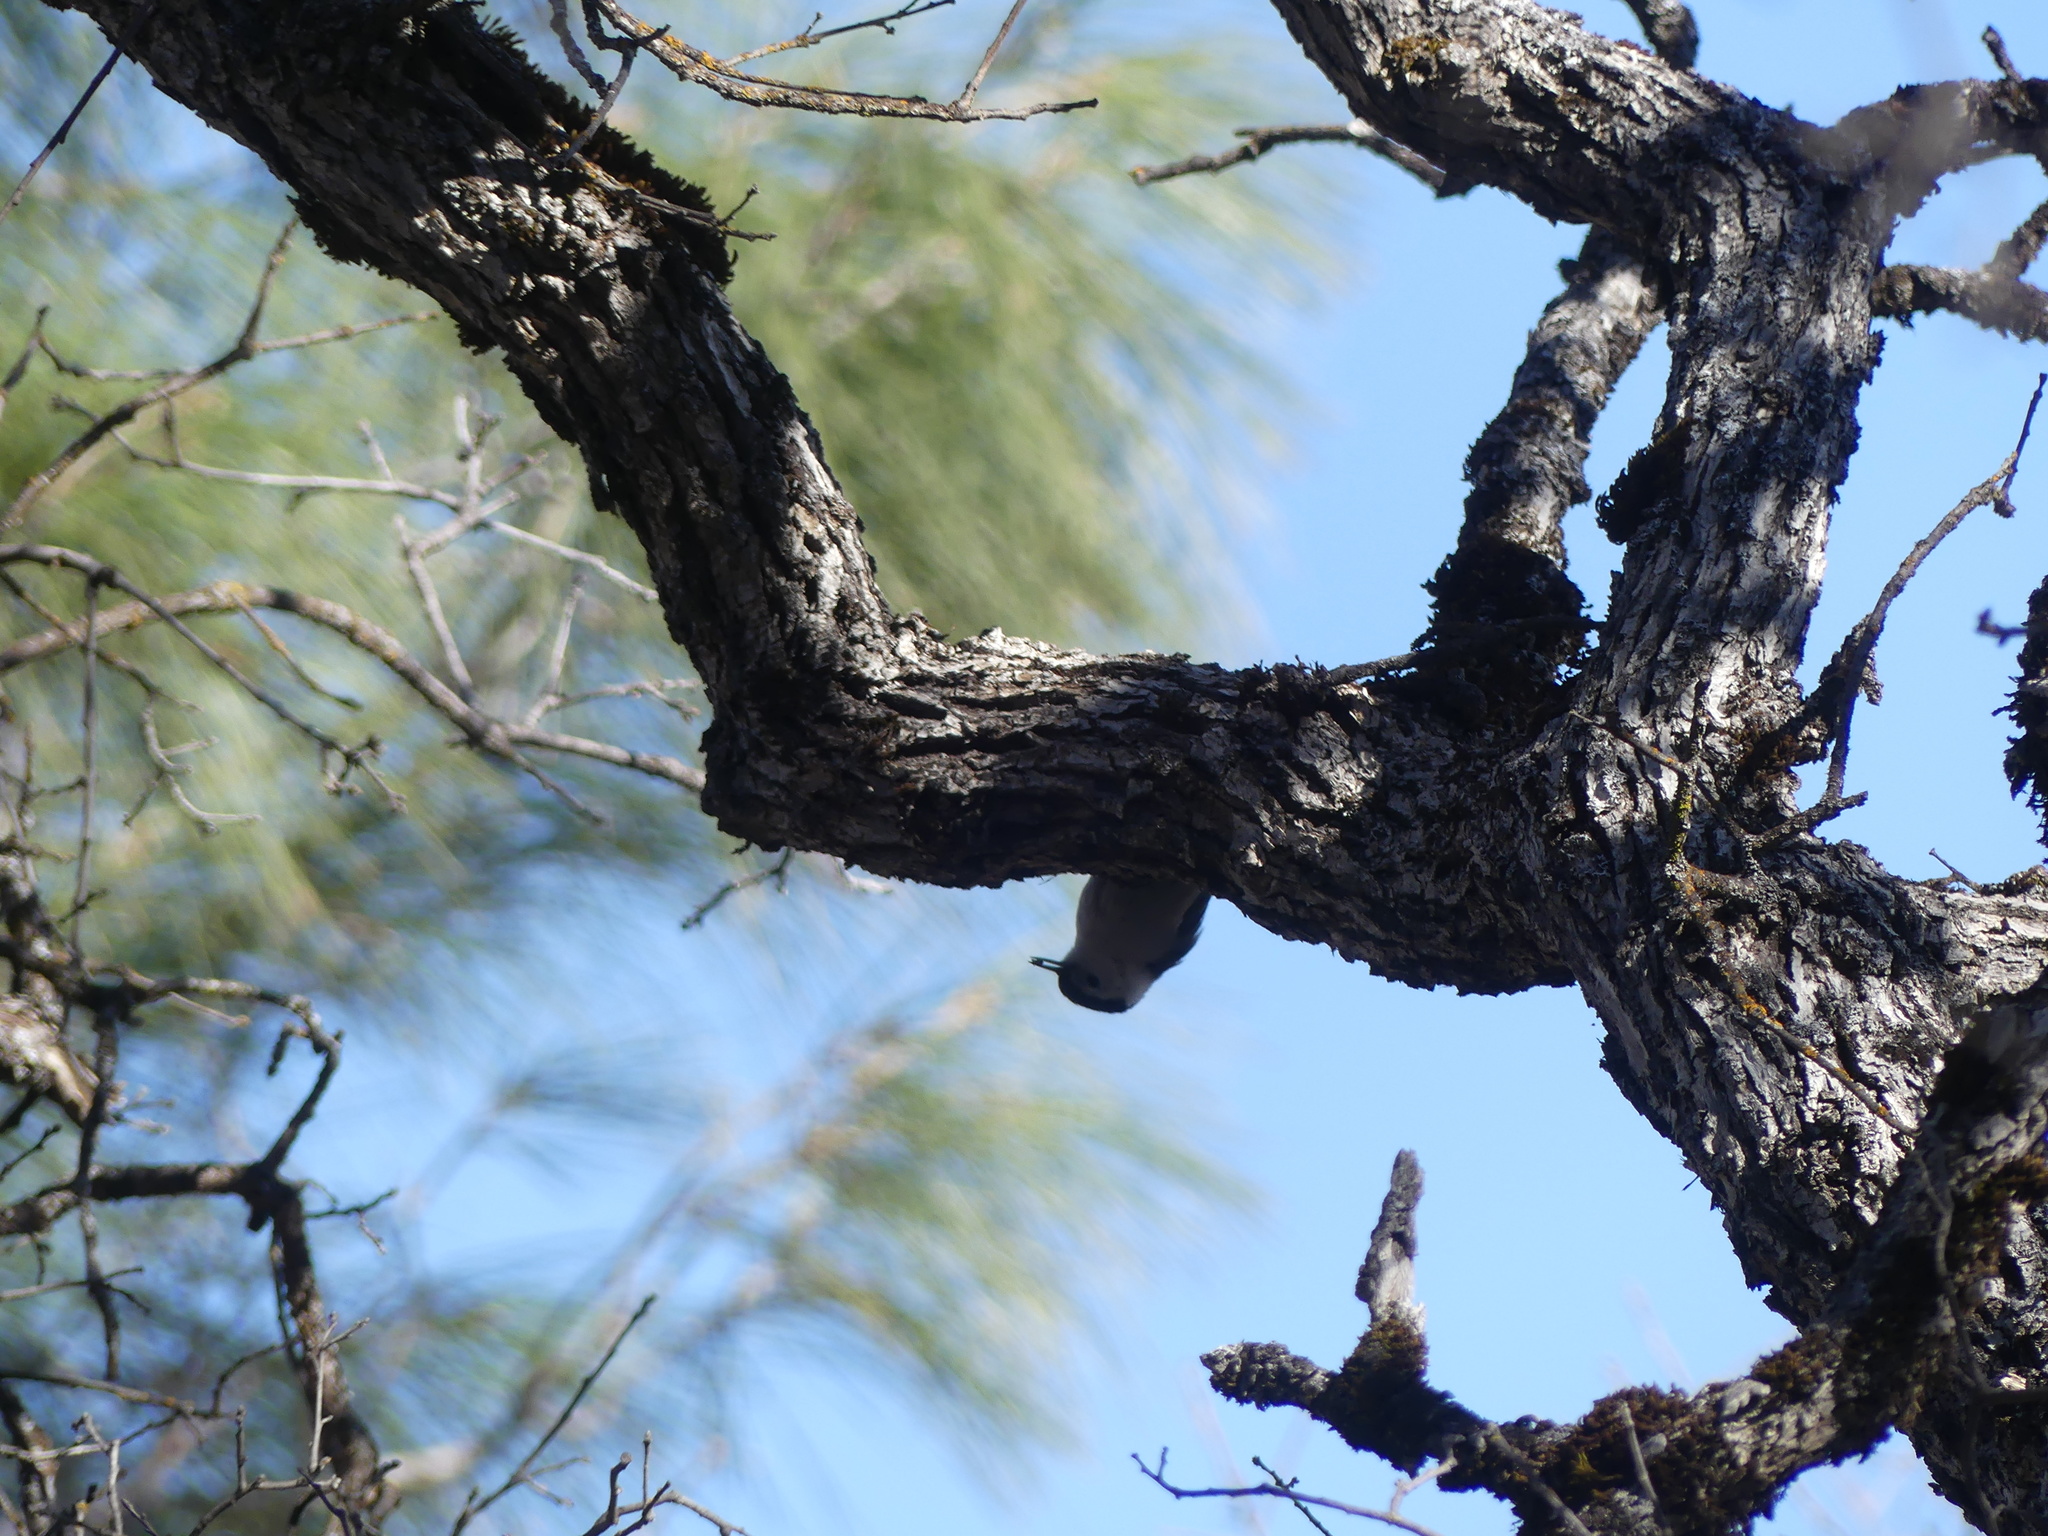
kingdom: Animalia
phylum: Chordata
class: Aves
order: Passeriformes
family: Sittidae
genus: Sitta
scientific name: Sitta carolinensis
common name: White-breasted nuthatch
